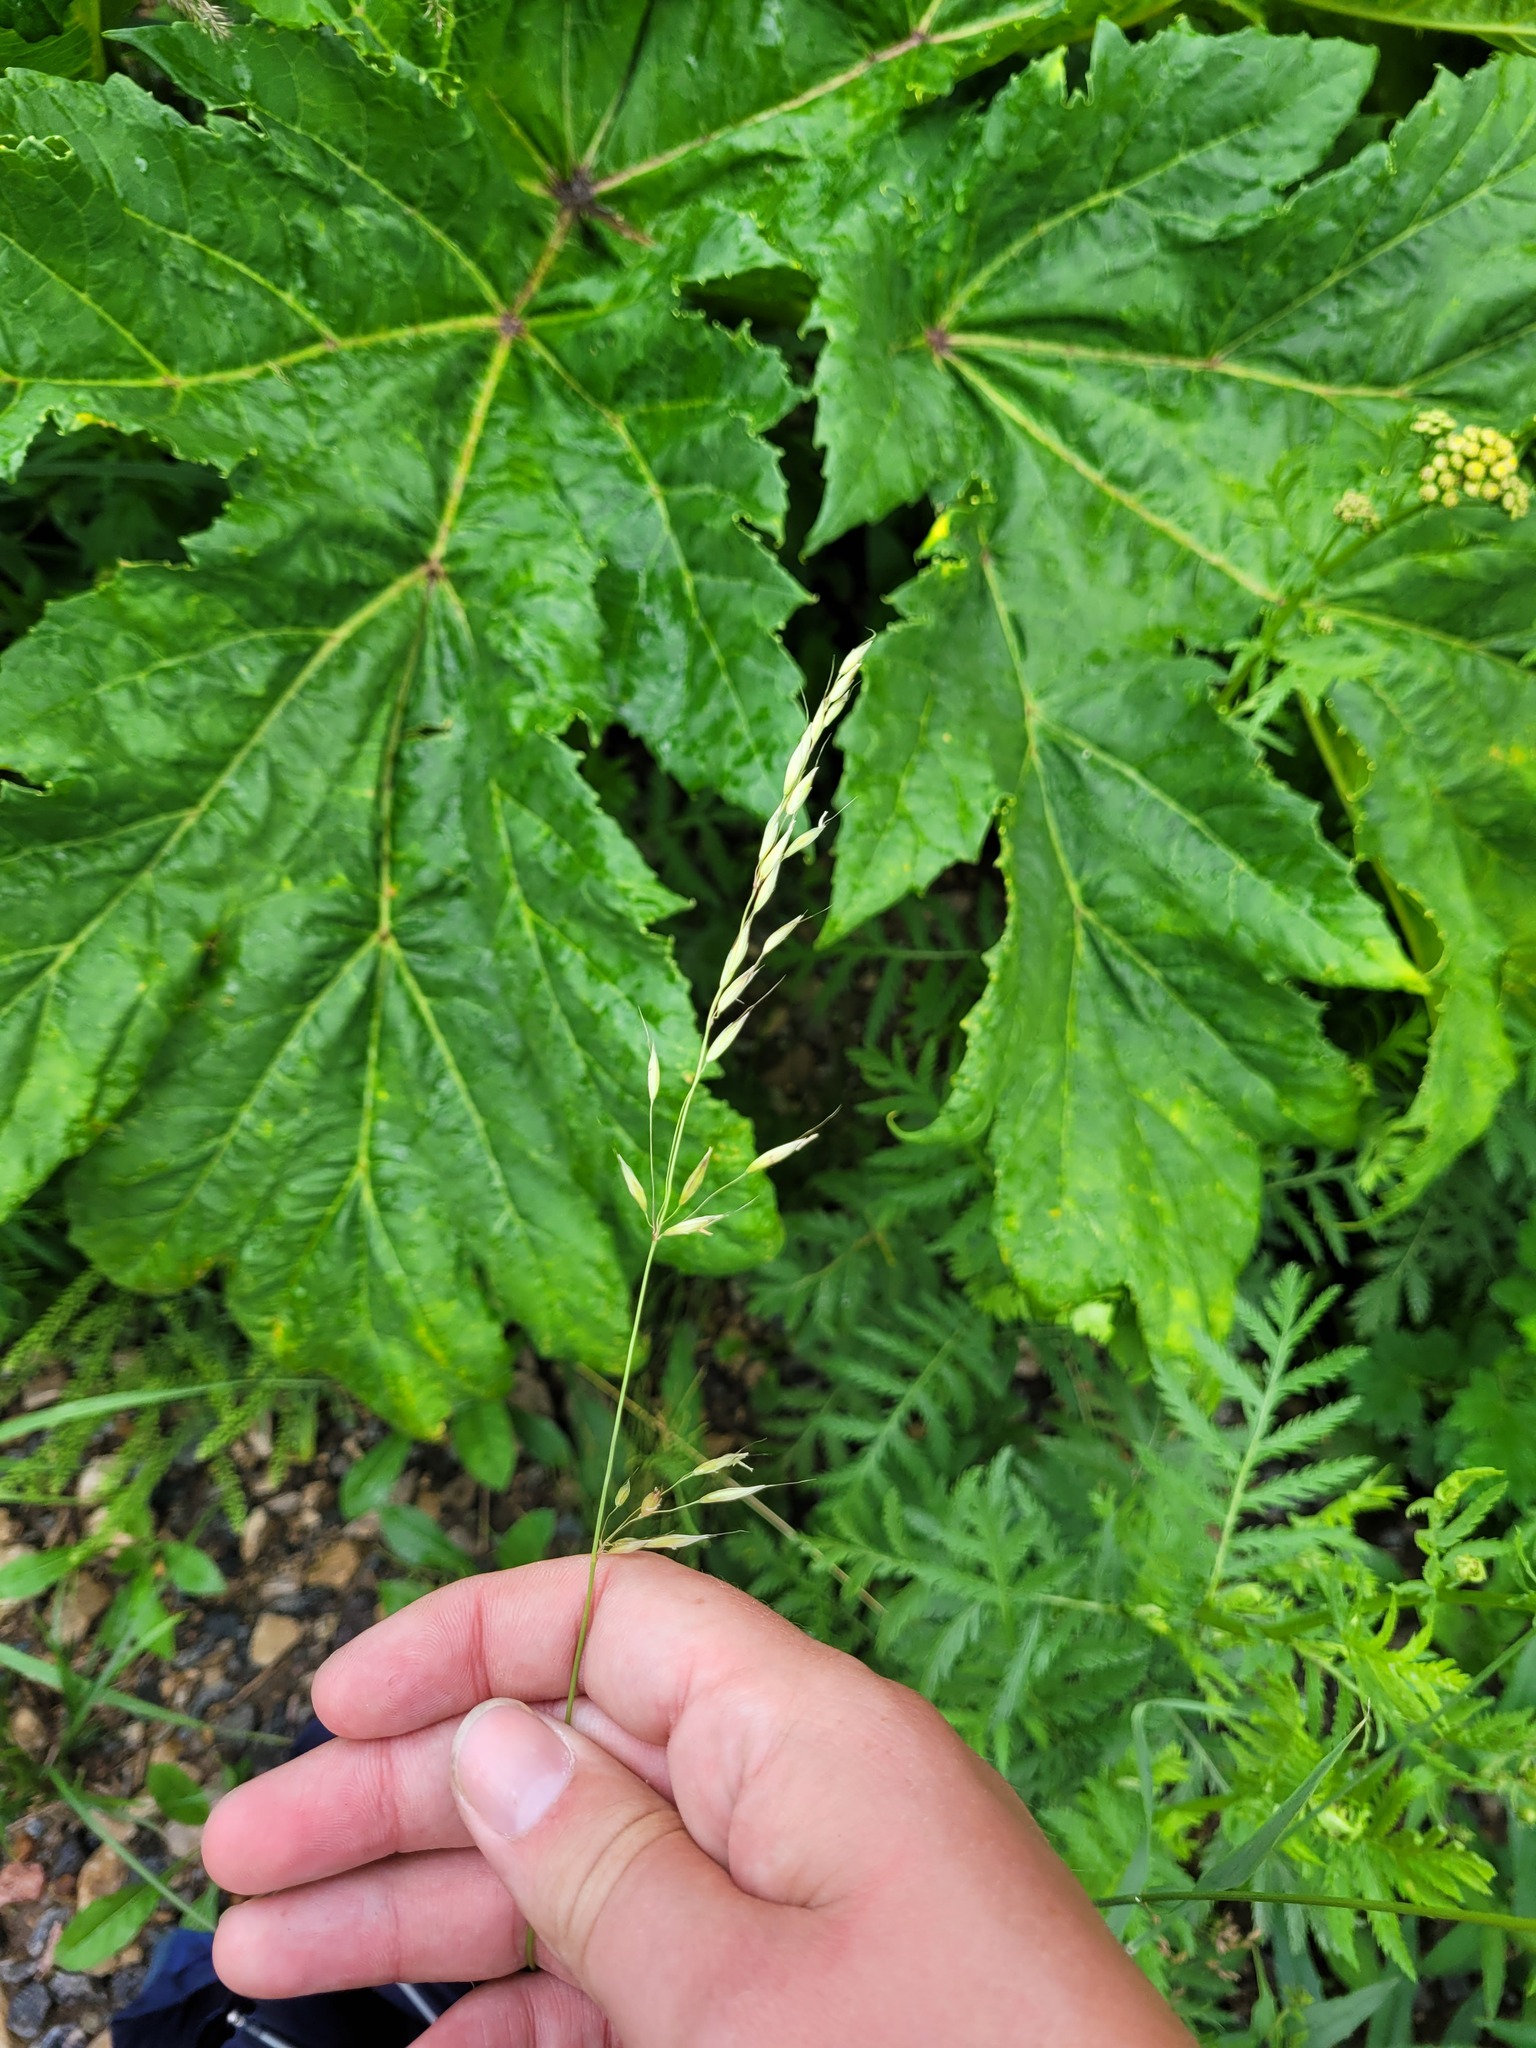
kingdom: Plantae
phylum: Tracheophyta
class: Liliopsida
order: Poales
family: Poaceae
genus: Arrhenatherum
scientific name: Arrhenatherum elatius
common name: Tall oatgrass
